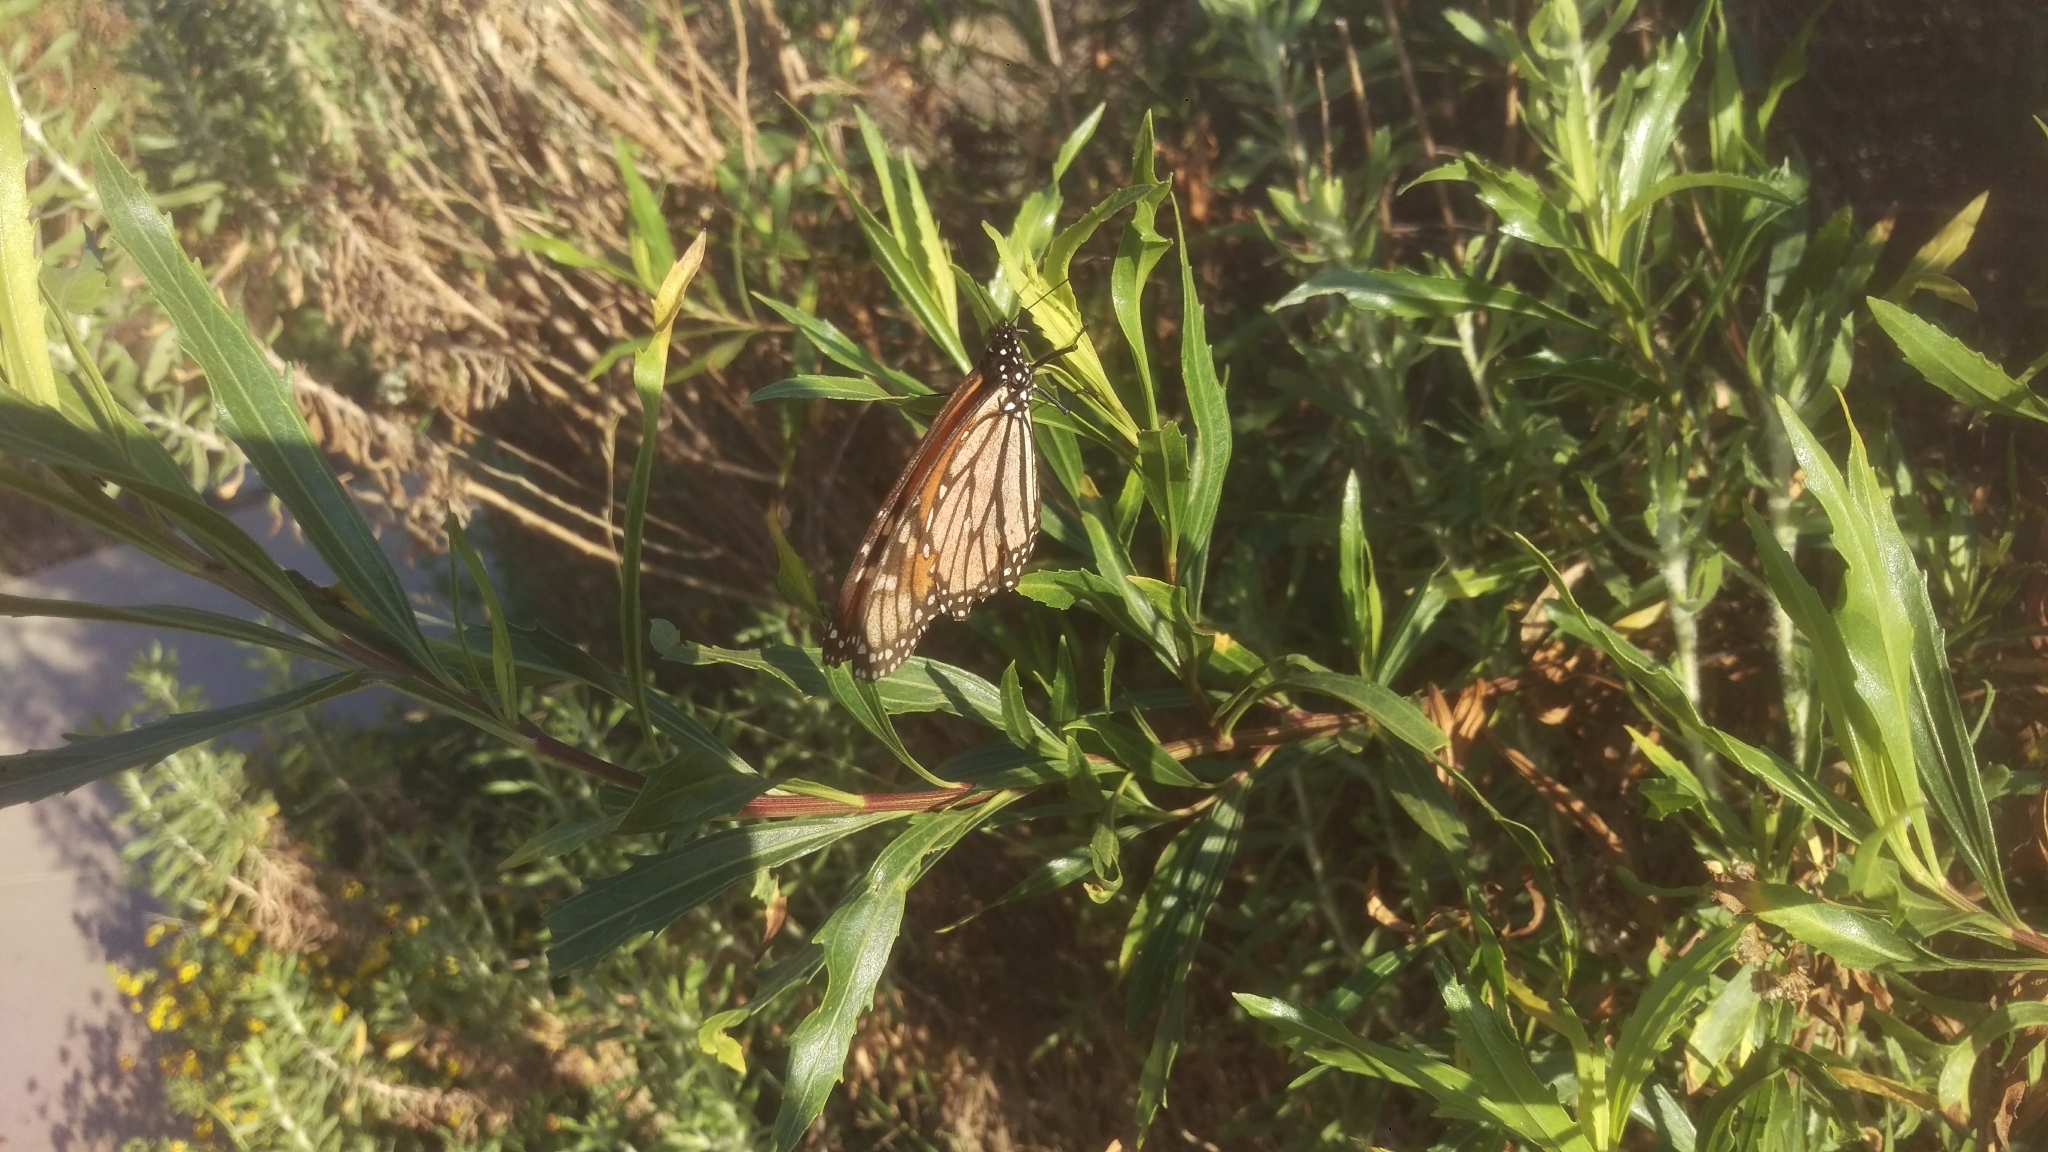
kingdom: Animalia
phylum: Arthropoda
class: Insecta
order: Lepidoptera
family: Nymphalidae
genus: Danaus
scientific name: Danaus plexippus
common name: Monarch
